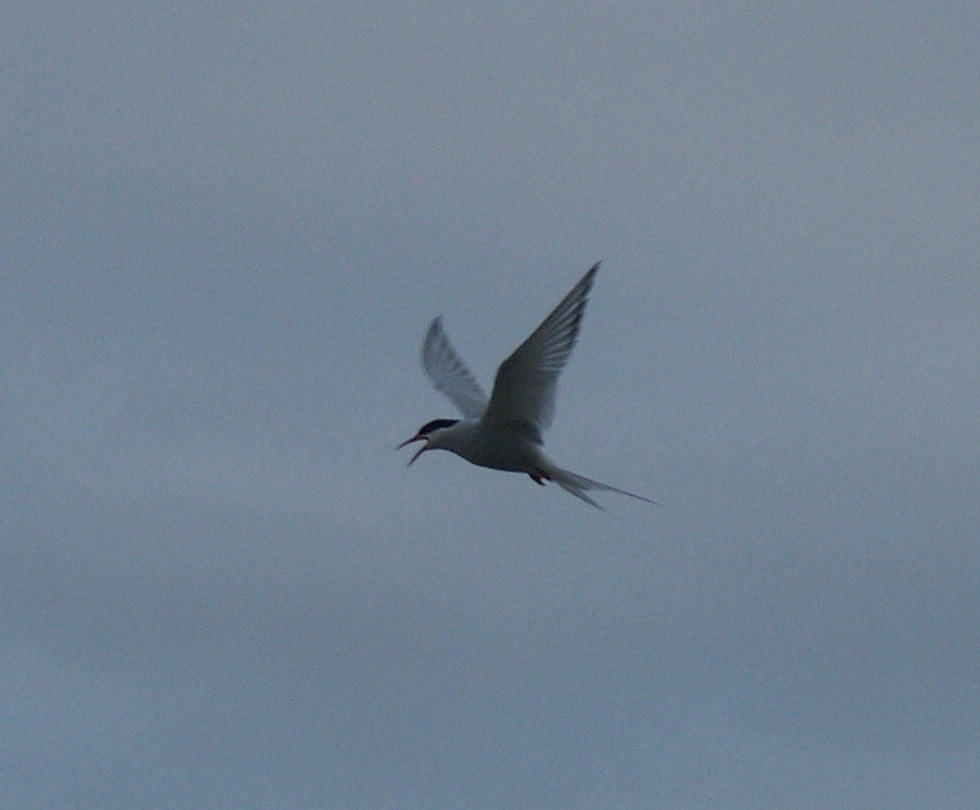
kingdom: Animalia
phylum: Chordata
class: Aves
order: Charadriiformes
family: Laridae
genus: Sterna
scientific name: Sterna paradisaea
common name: Arctic tern
